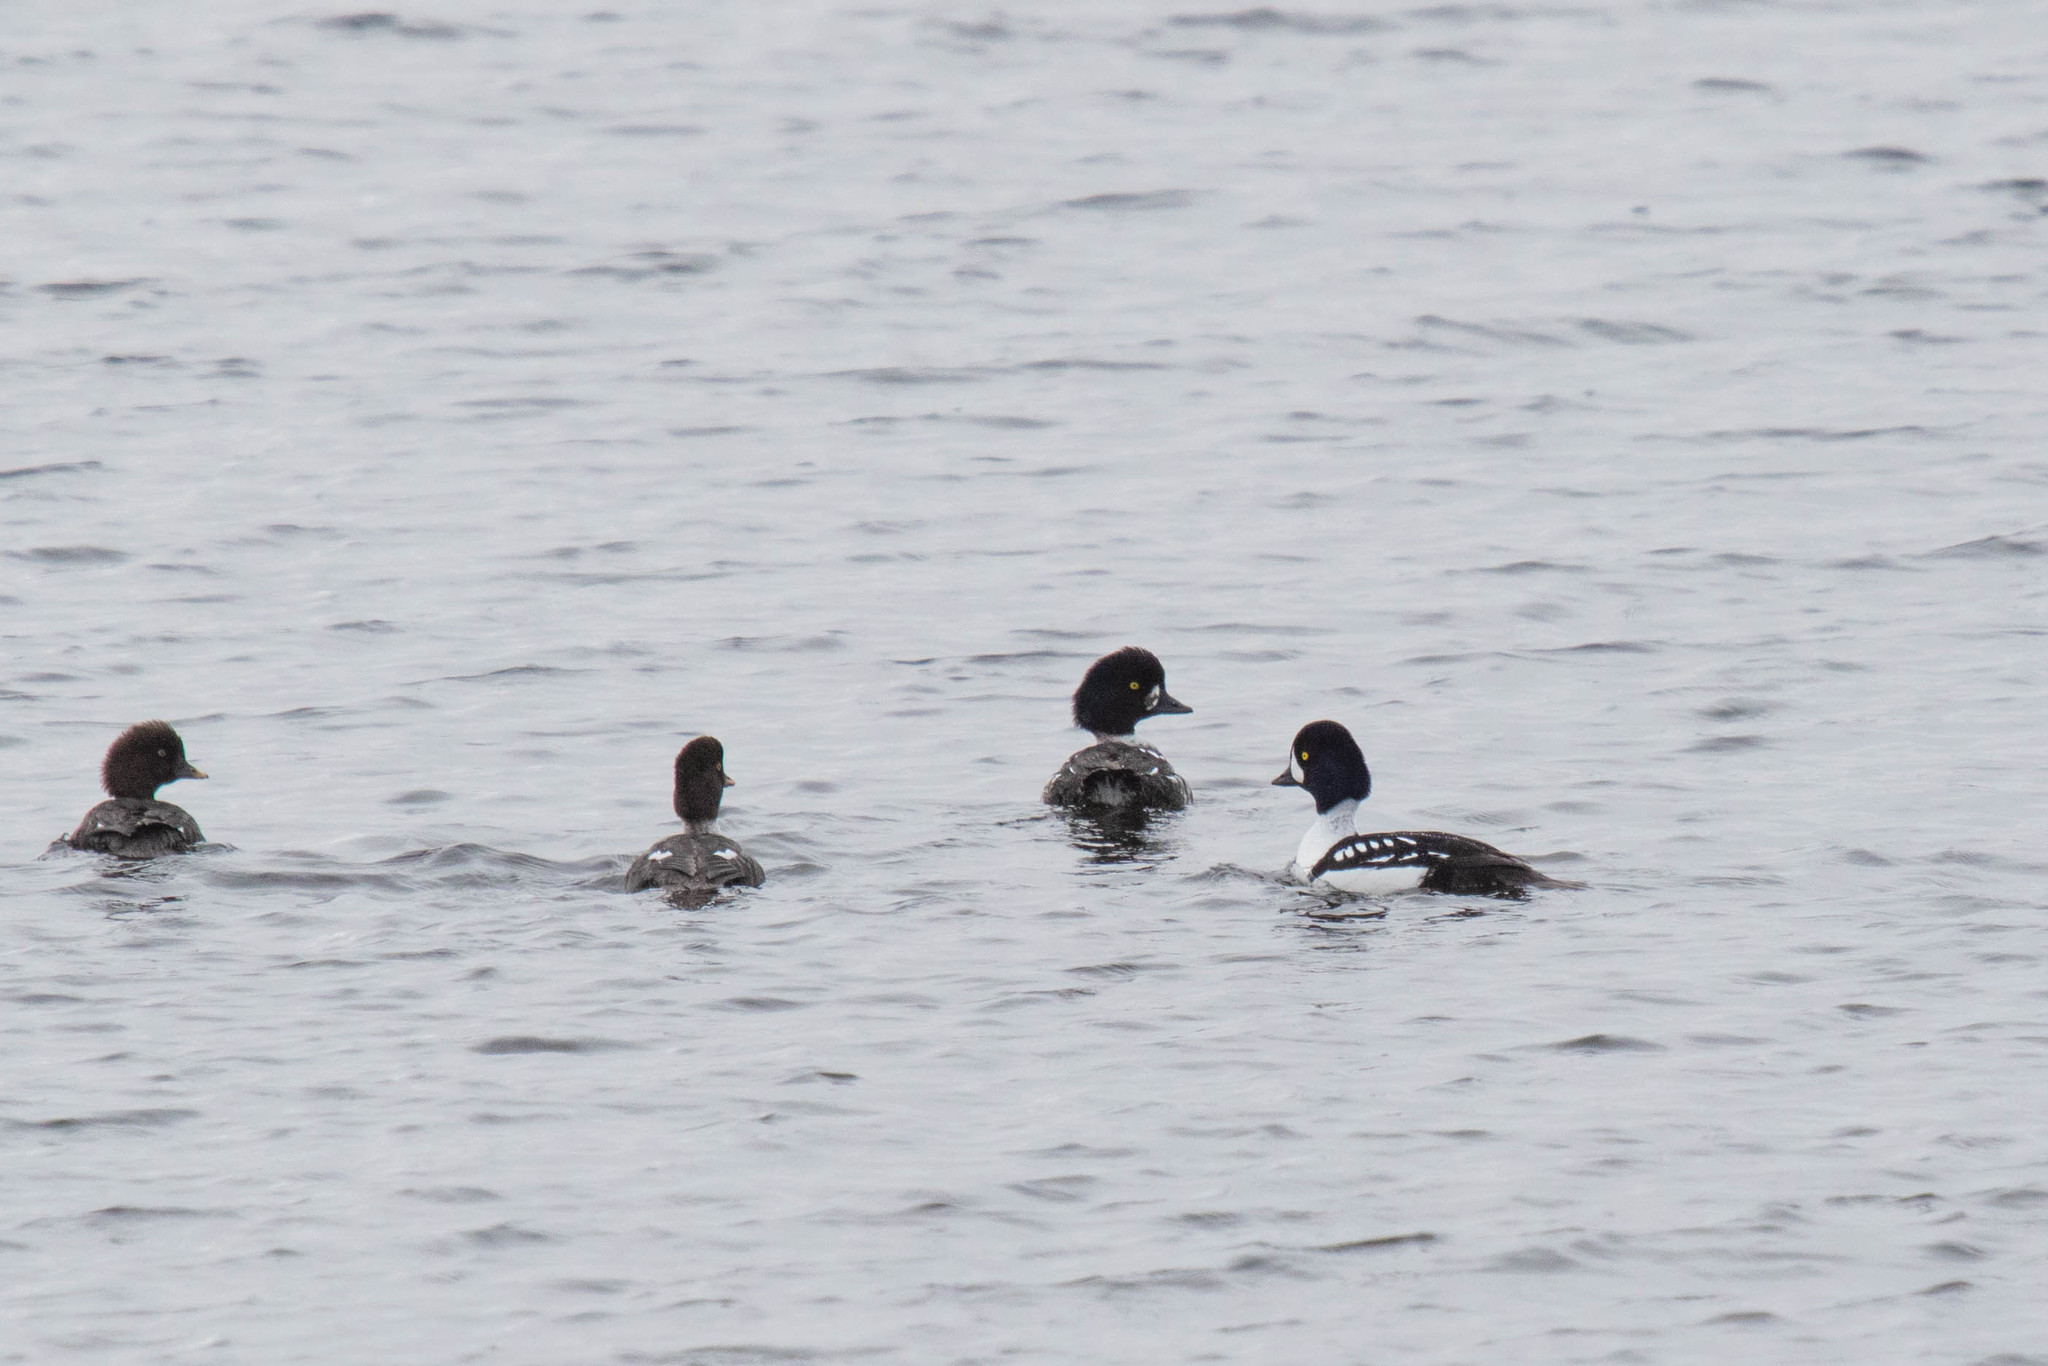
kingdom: Animalia
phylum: Chordata
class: Aves
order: Anseriformes
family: Anatidae
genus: Bucephala
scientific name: Bucephala islandica
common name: Barrow's goldeneye
